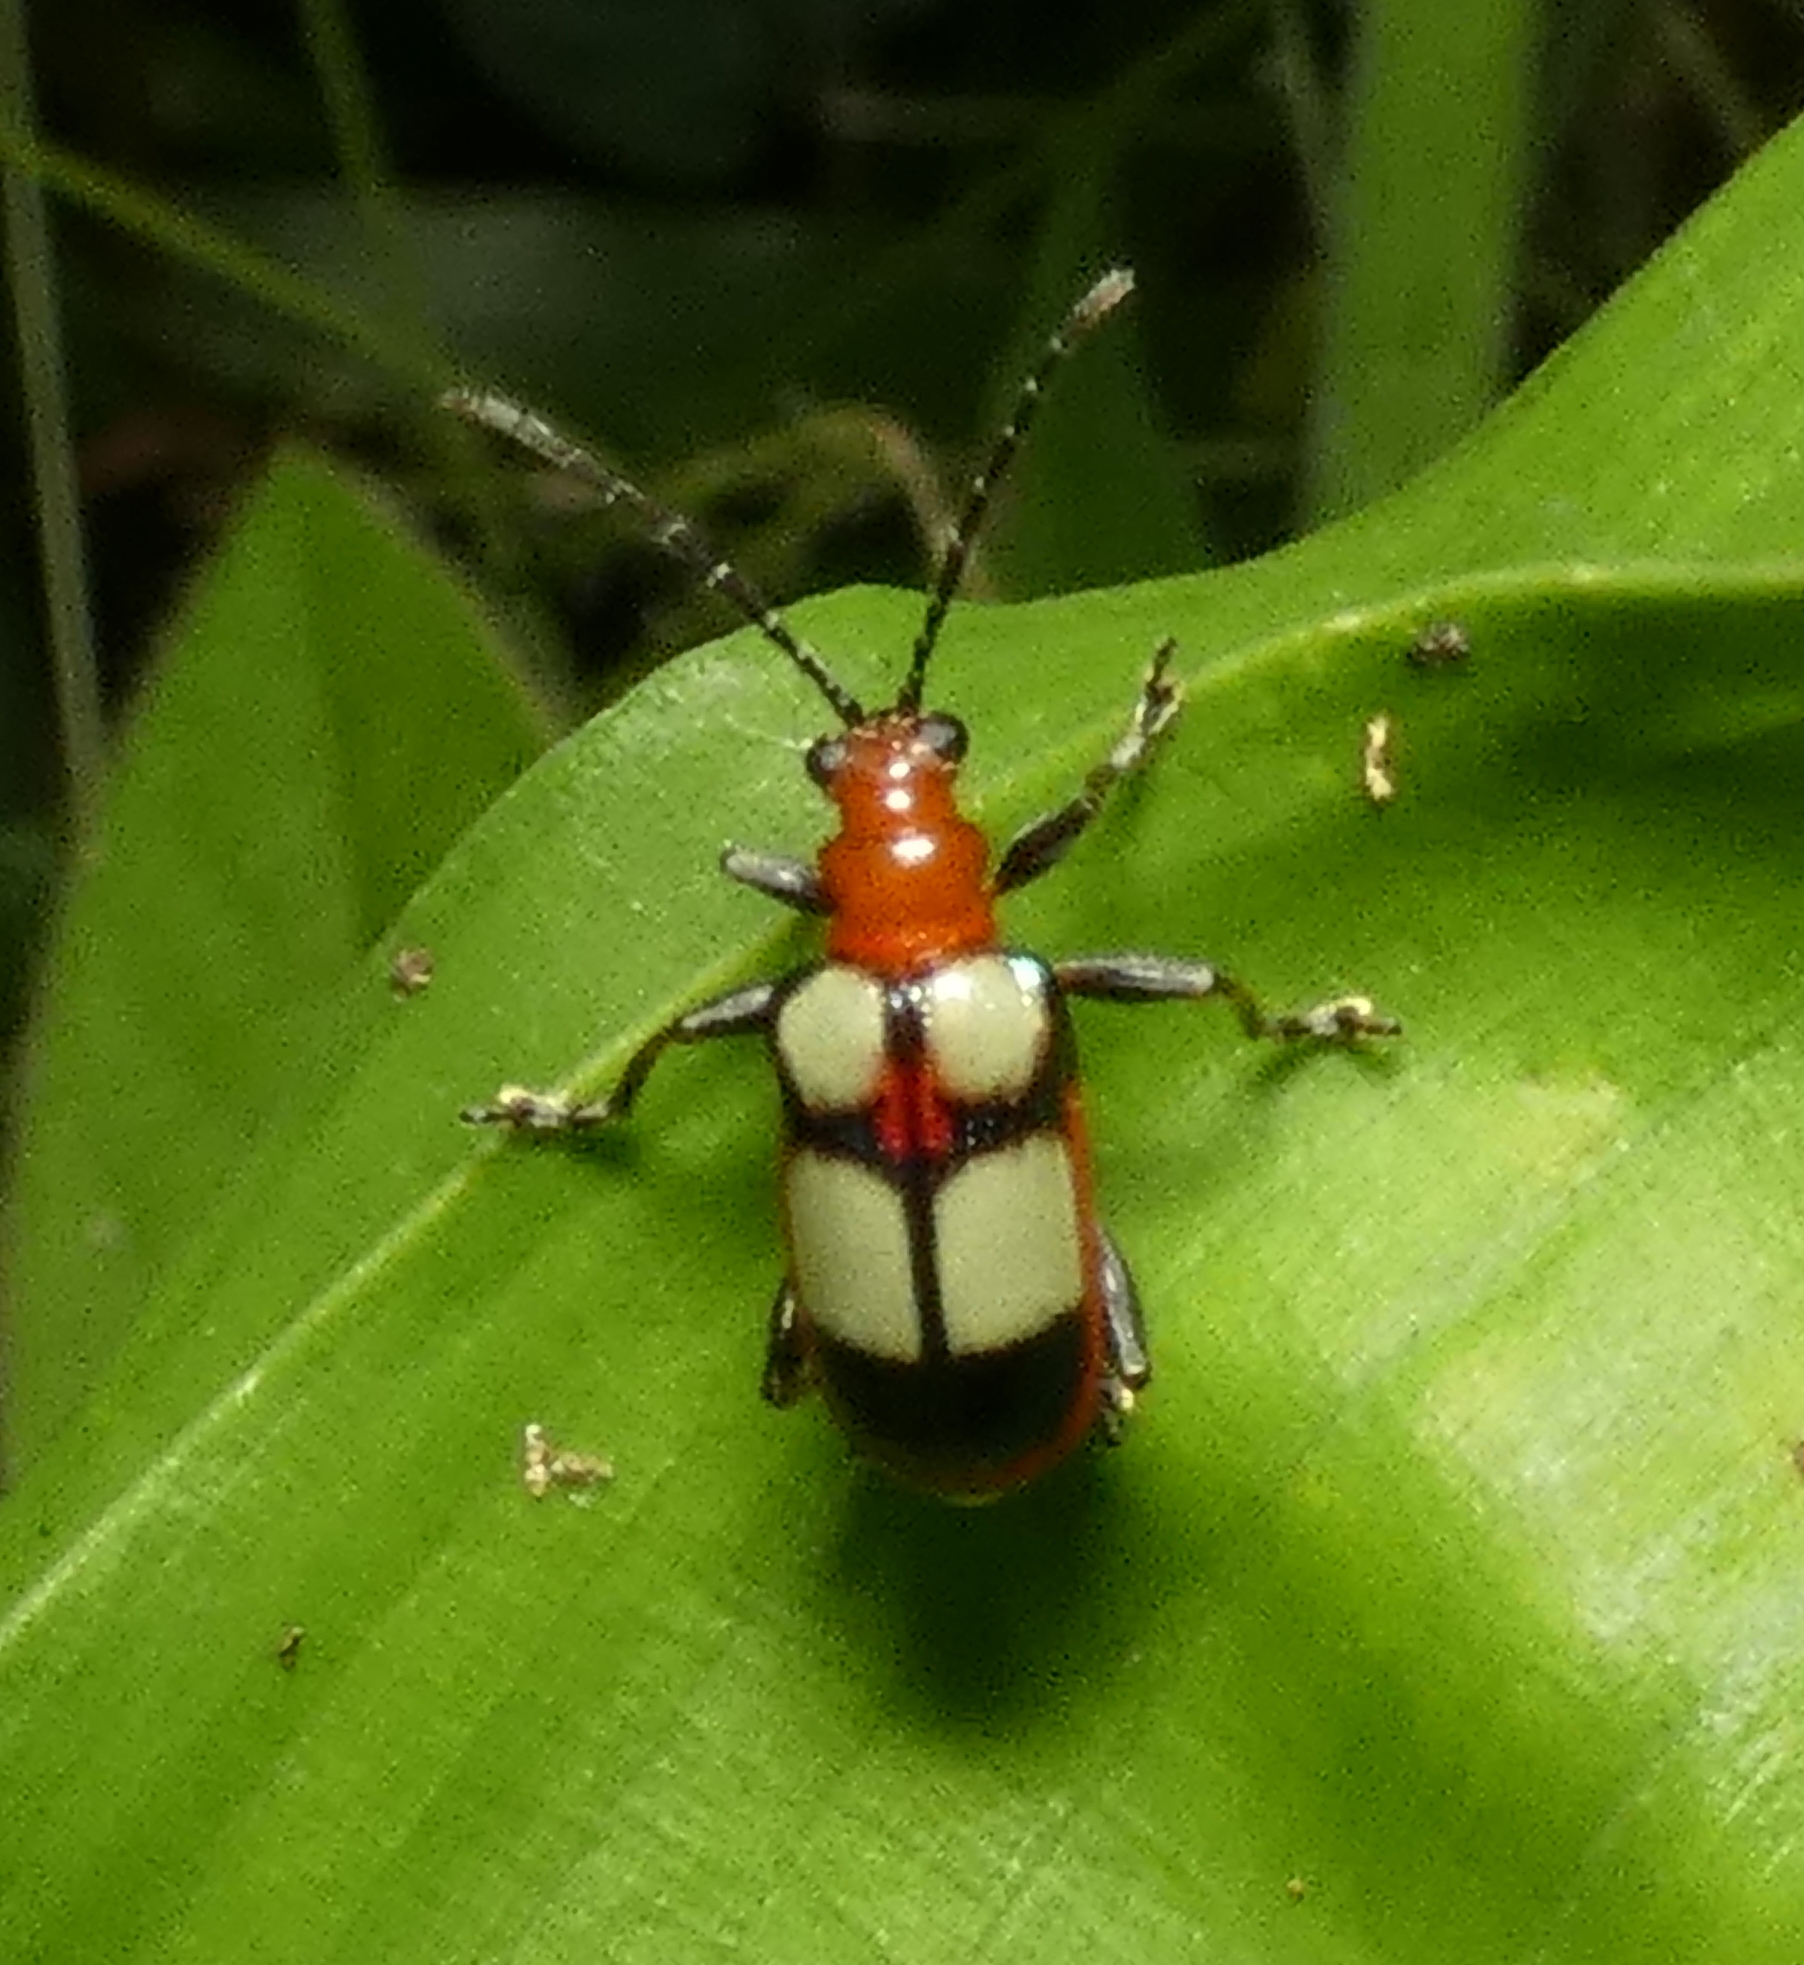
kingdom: Animalia
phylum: Arthropoda
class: Insecta
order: Coleoptera
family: Chrysomelidae
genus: Neolema
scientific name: Neolema
